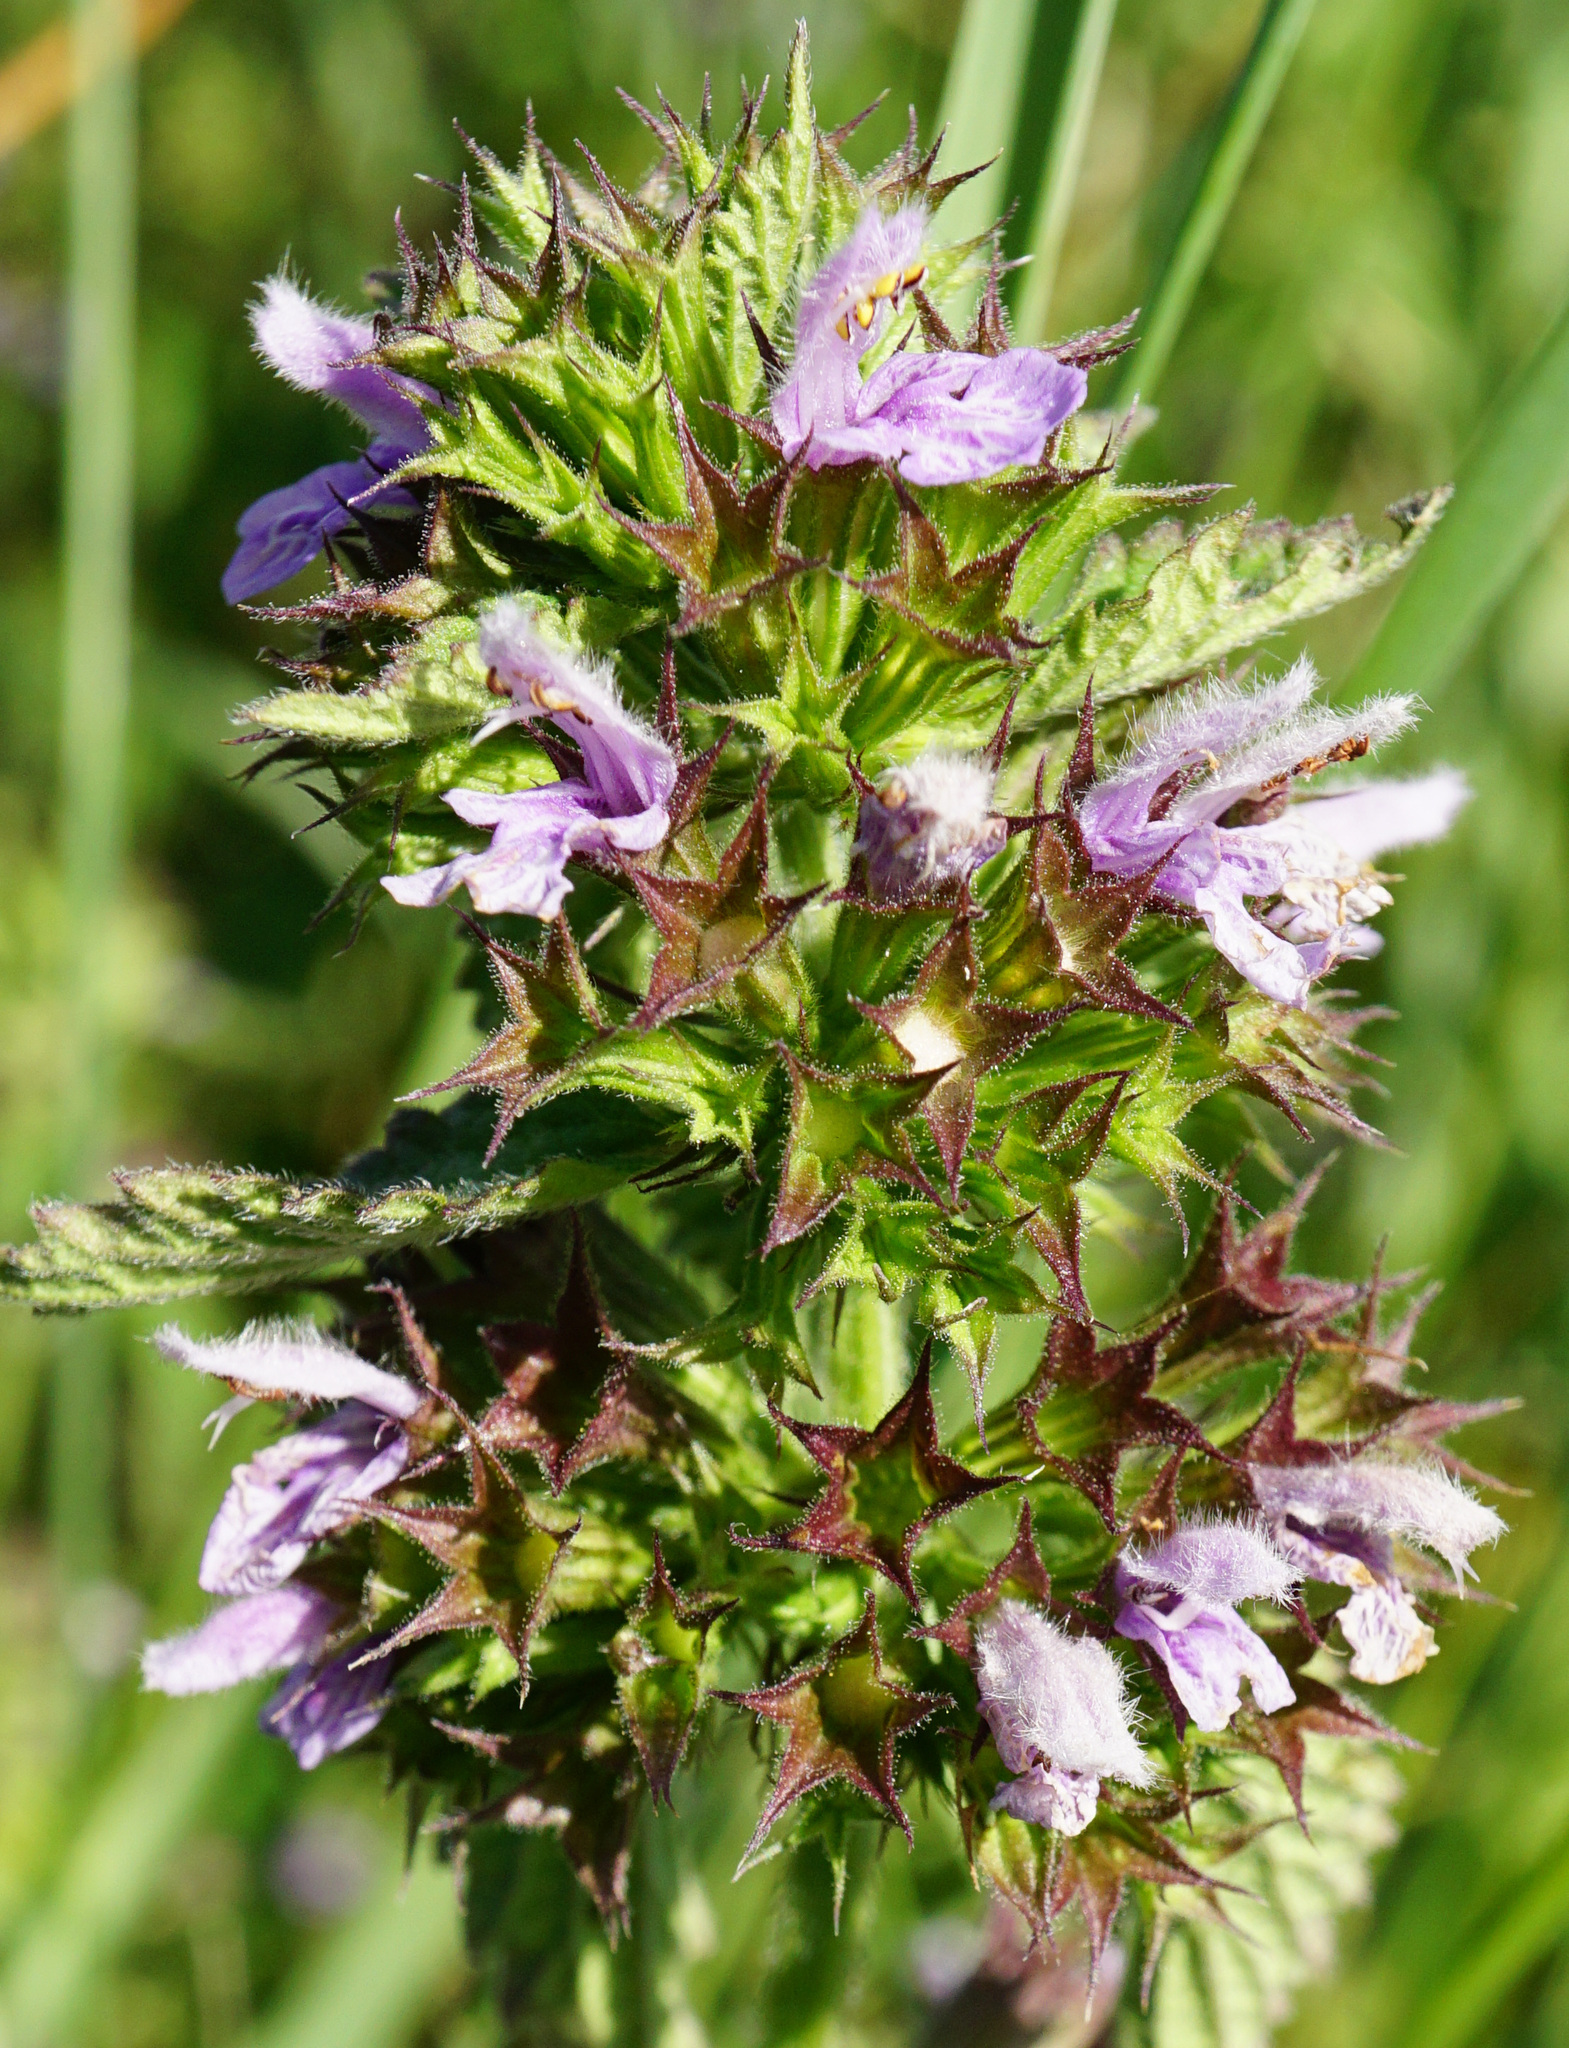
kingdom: Plantae
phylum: Tracheophyta
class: Magnoliopsida
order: Lamiales
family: Lamiaceae
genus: Ballota
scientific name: Ballota nigra
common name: Black horehound
